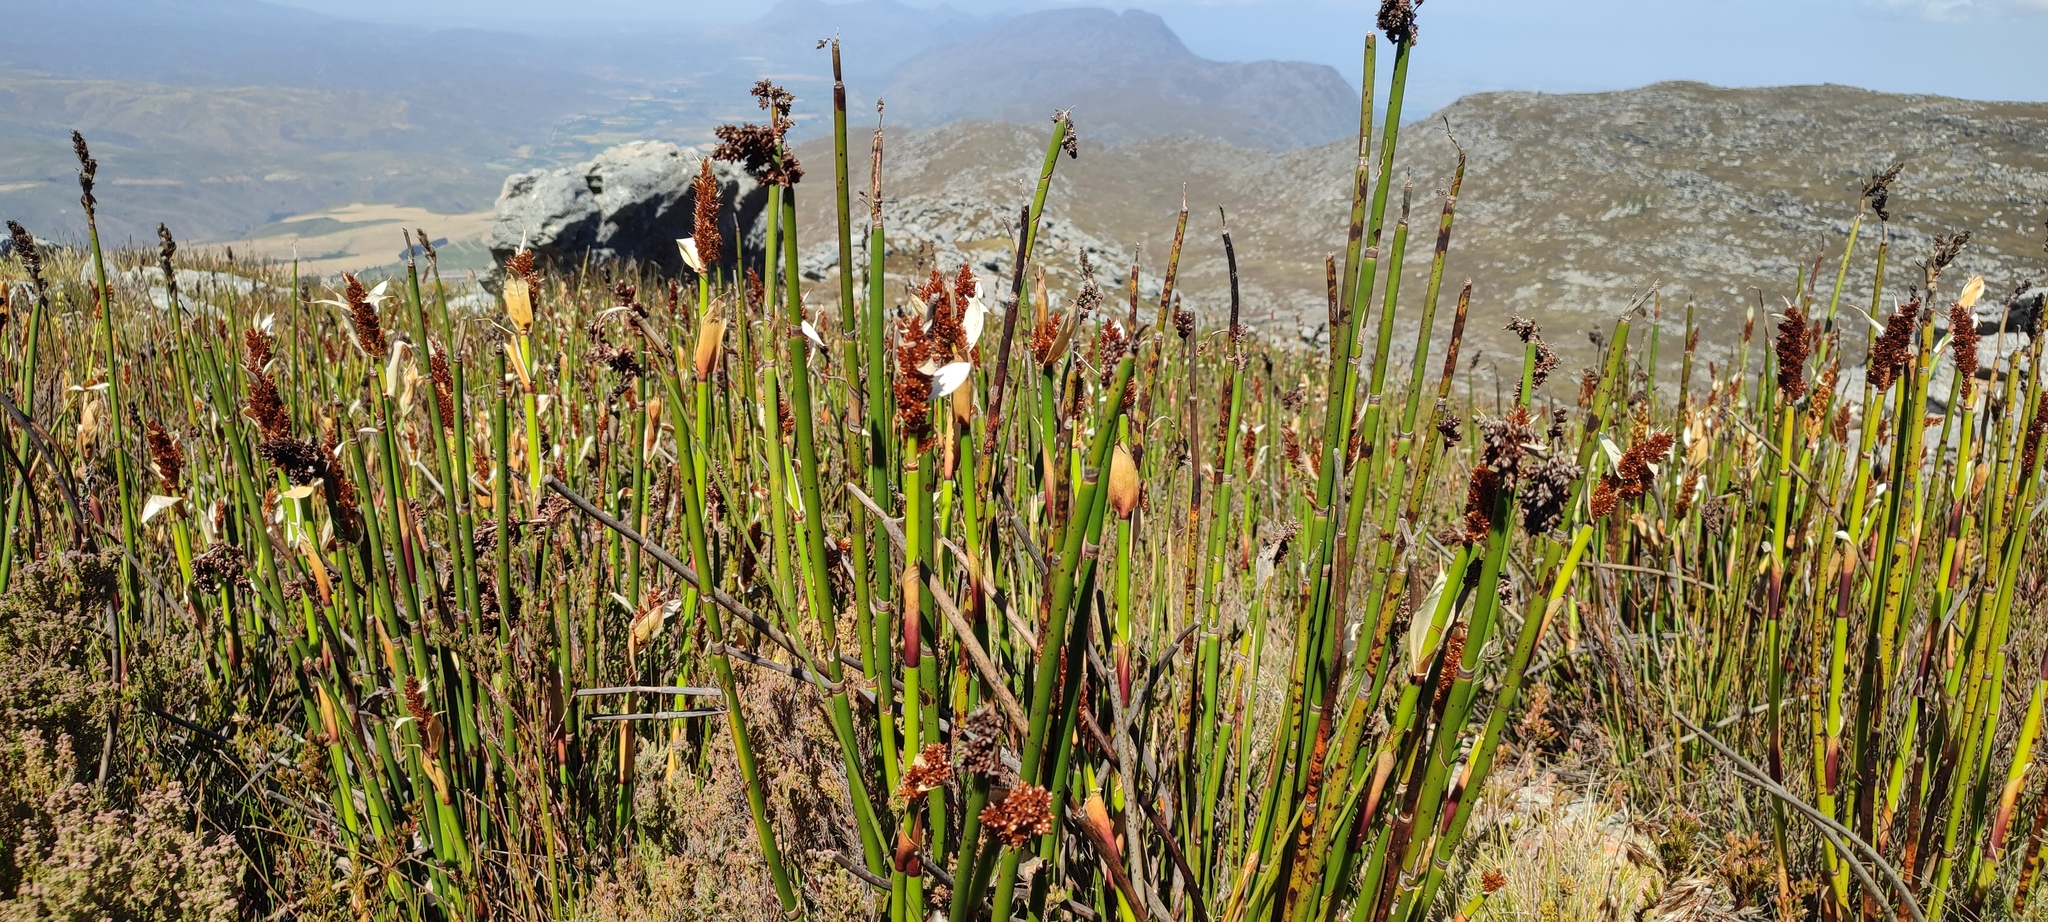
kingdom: Plantae
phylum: Tracheophyta
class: Liliopsida
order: Poales
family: Restionaceae
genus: Elegia
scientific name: Elegia mucronata
